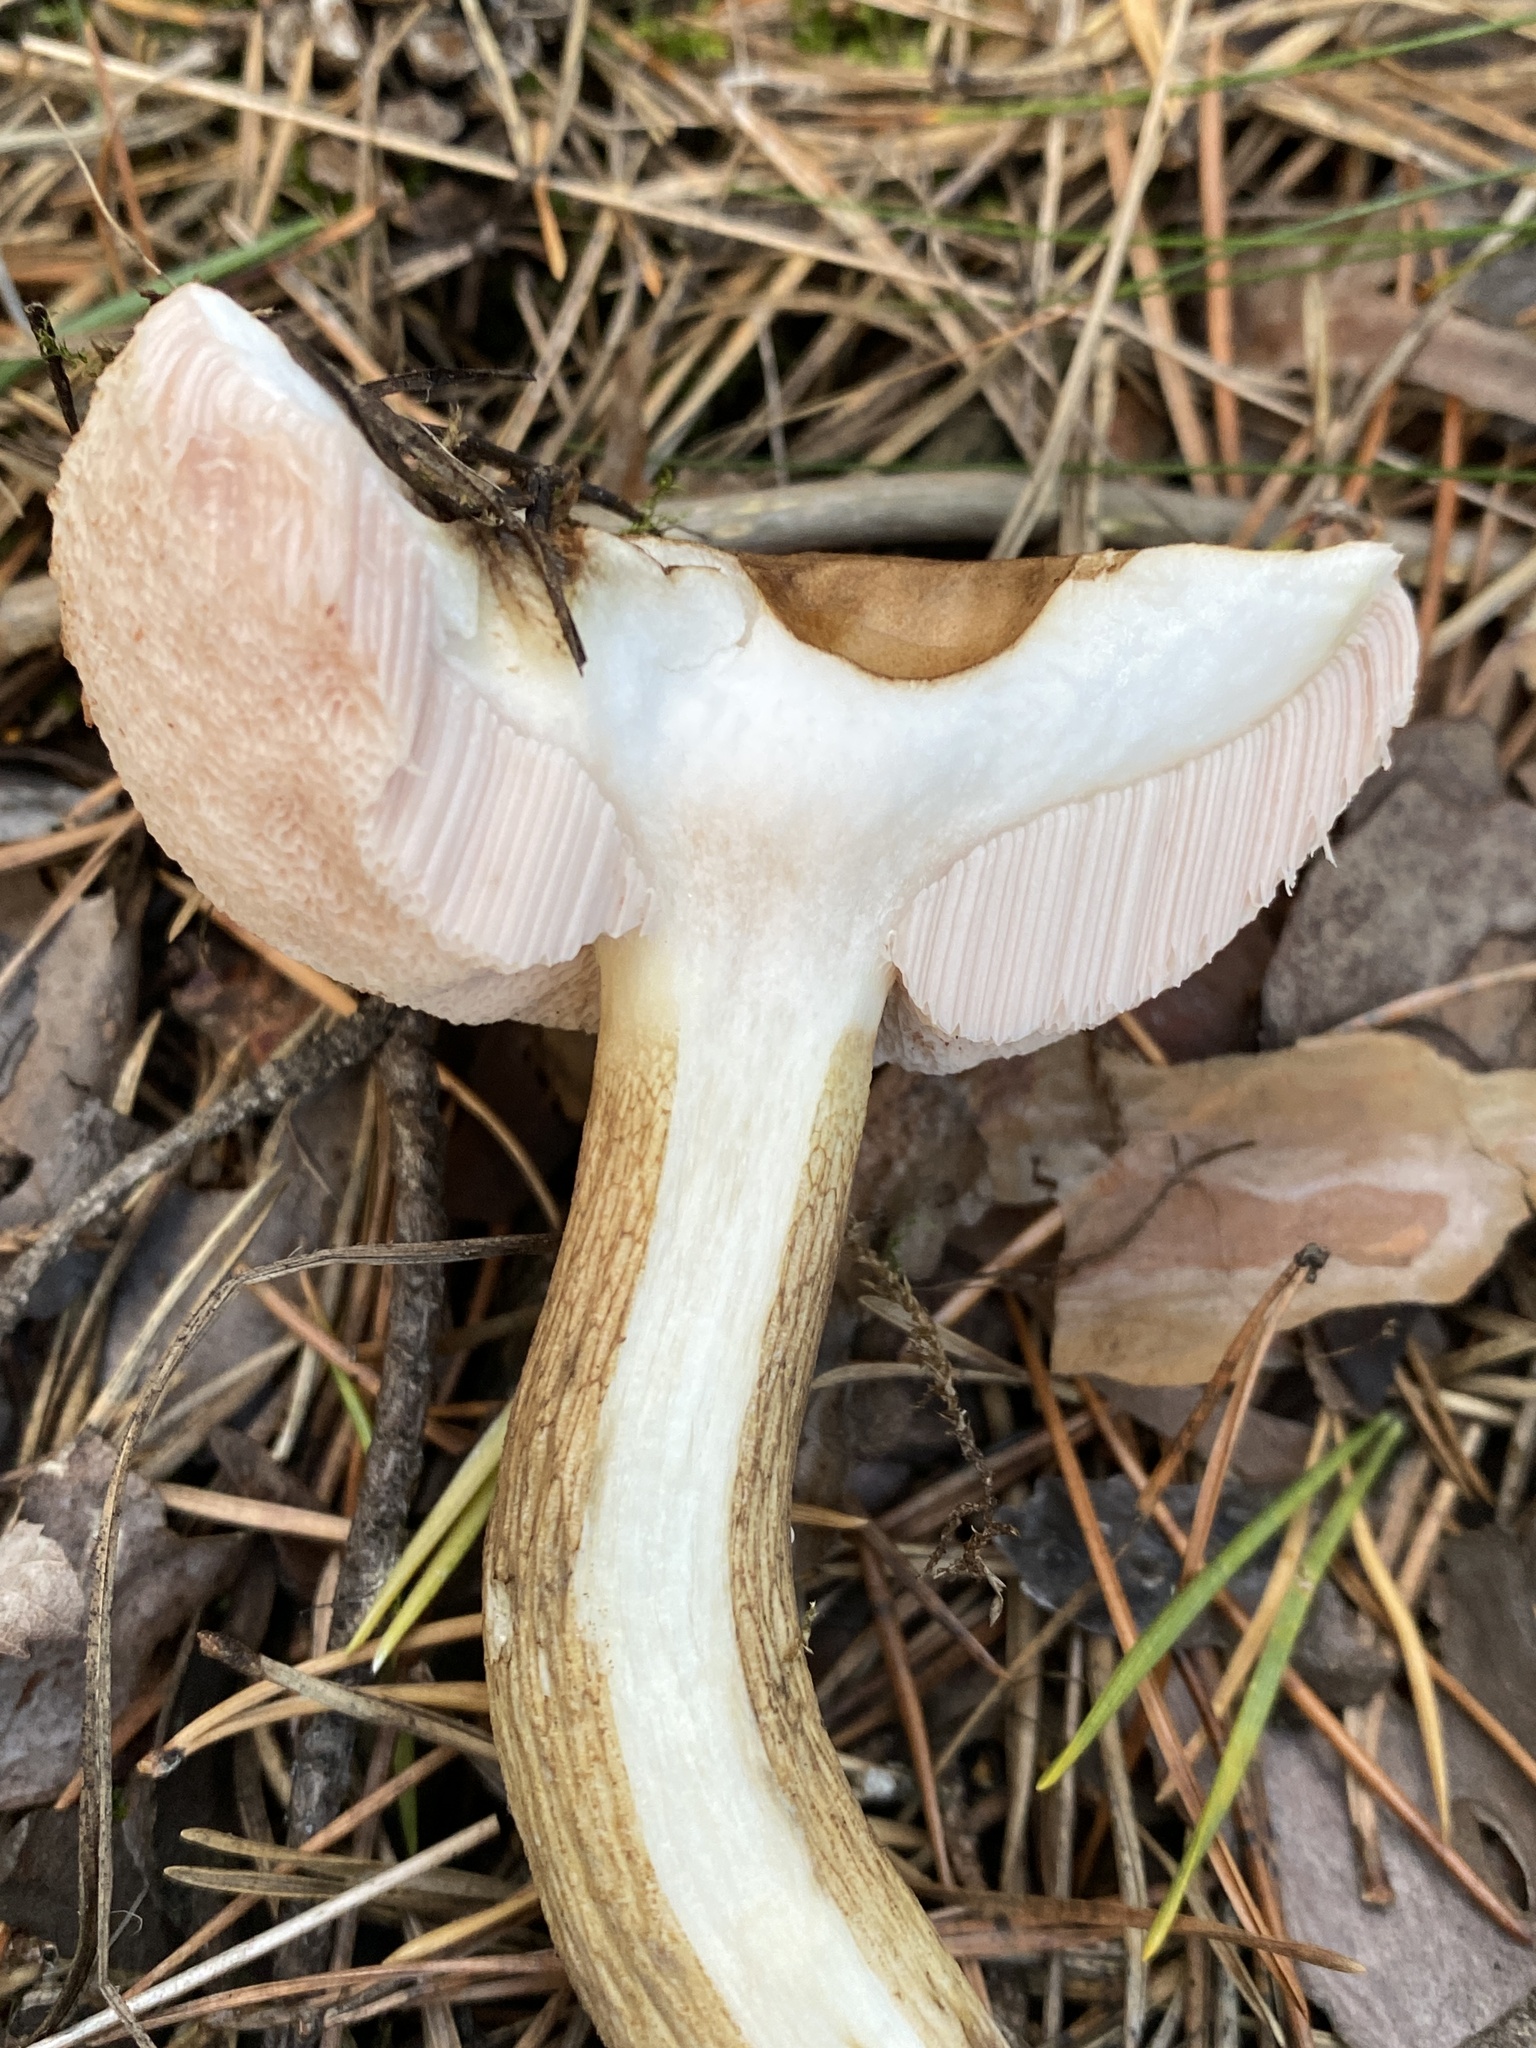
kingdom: Fungi
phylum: Basidiomycota
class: Agaricomycetes
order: Boletales
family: Boletaceae
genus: Tylopilus
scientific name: Tylopilus felleus
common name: Bitter bolete
